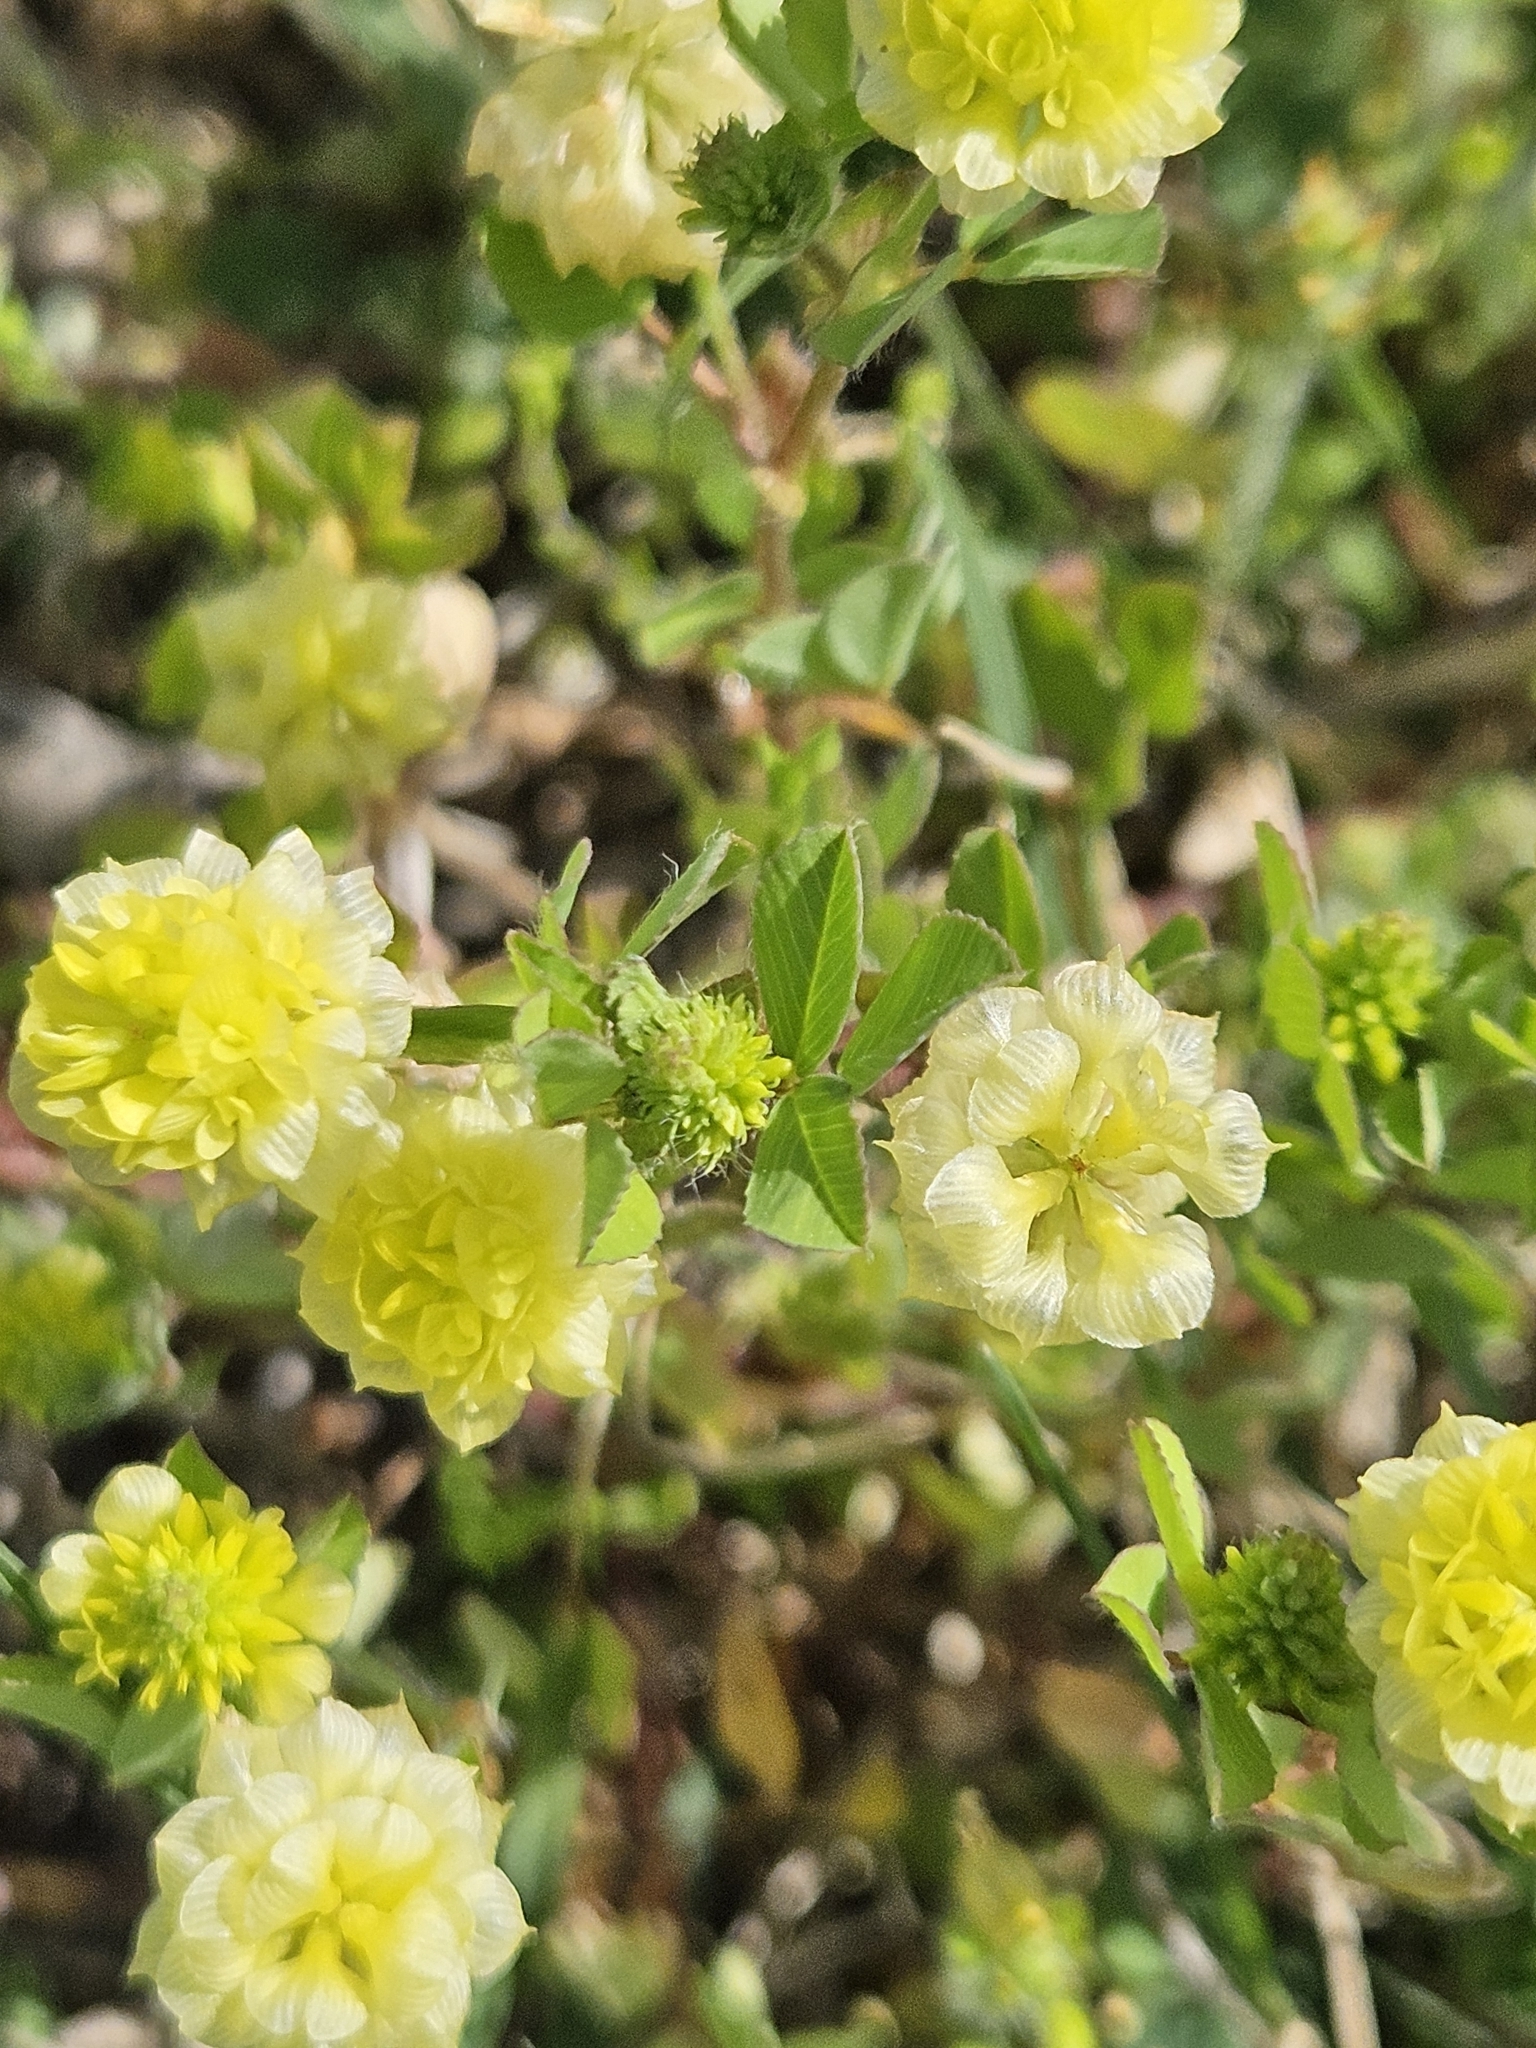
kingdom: Plantae
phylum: Tracheophyta
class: Magnoliopsida
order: Fabales
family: Fabaceae
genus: Trifolium
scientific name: Trifolium campestre
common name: Field clover
